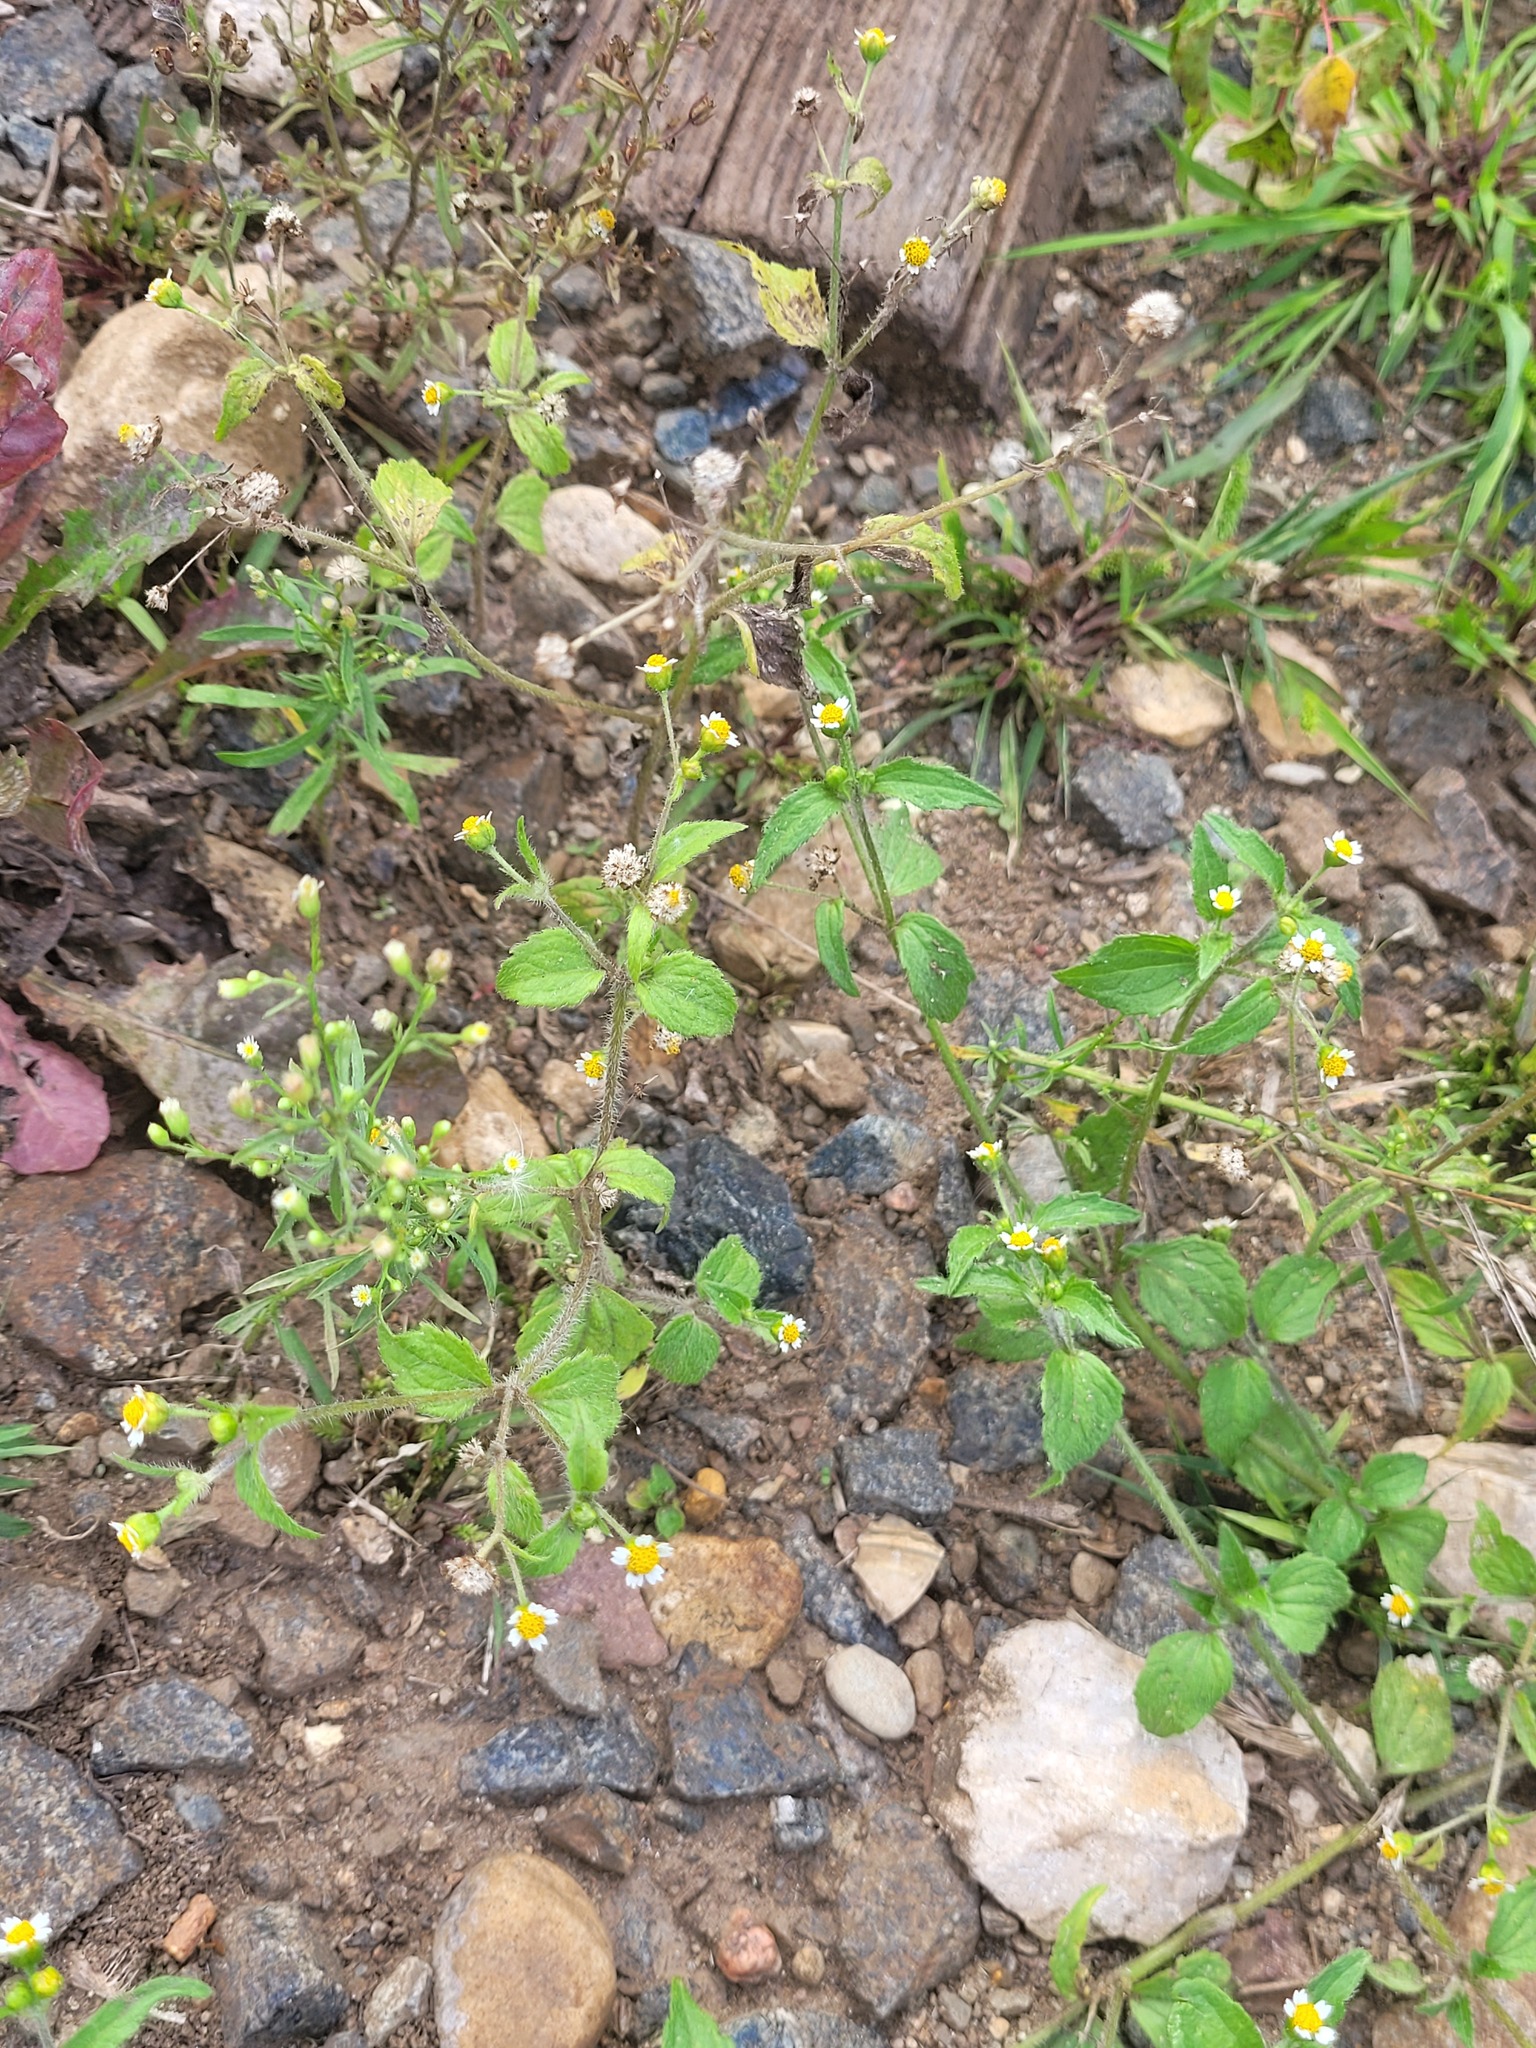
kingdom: Plantae
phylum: Tracheophyta
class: Magnoliopsida
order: Asterales
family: Asteraceae
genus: Galinsoga
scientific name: Galinsoga quadriradiata
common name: Shaggy soldier
